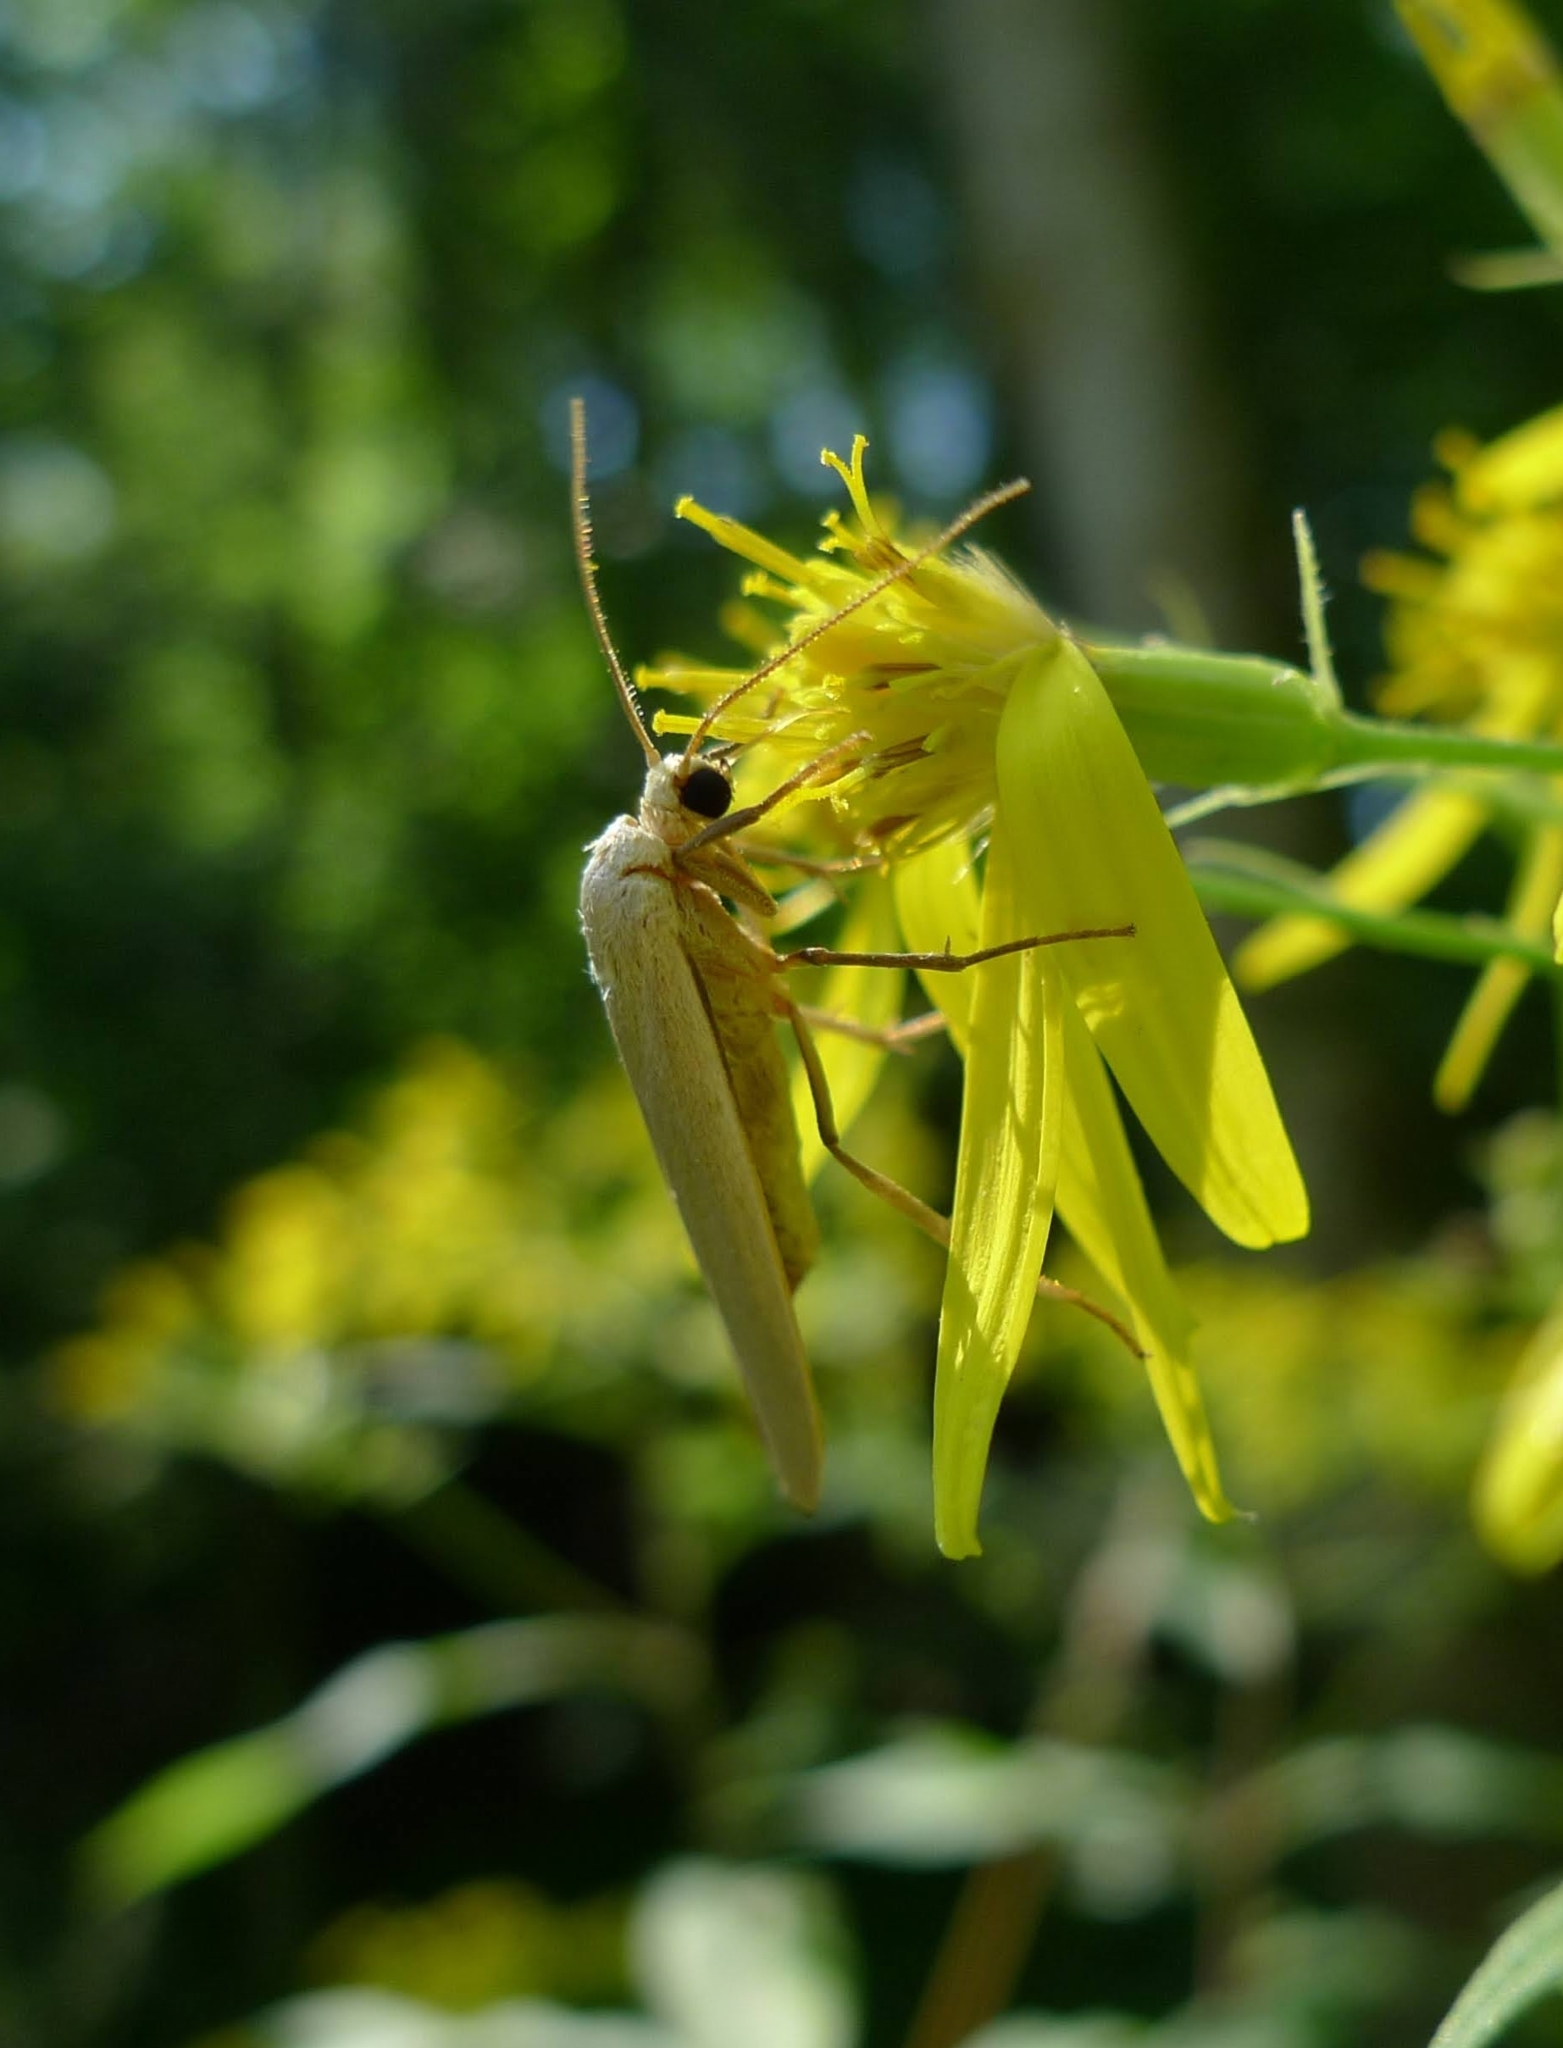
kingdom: Animalia
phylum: Arthropoda
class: Insecta
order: Lepidoptera
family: Erebidae
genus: Collita
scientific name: Collita griseola
